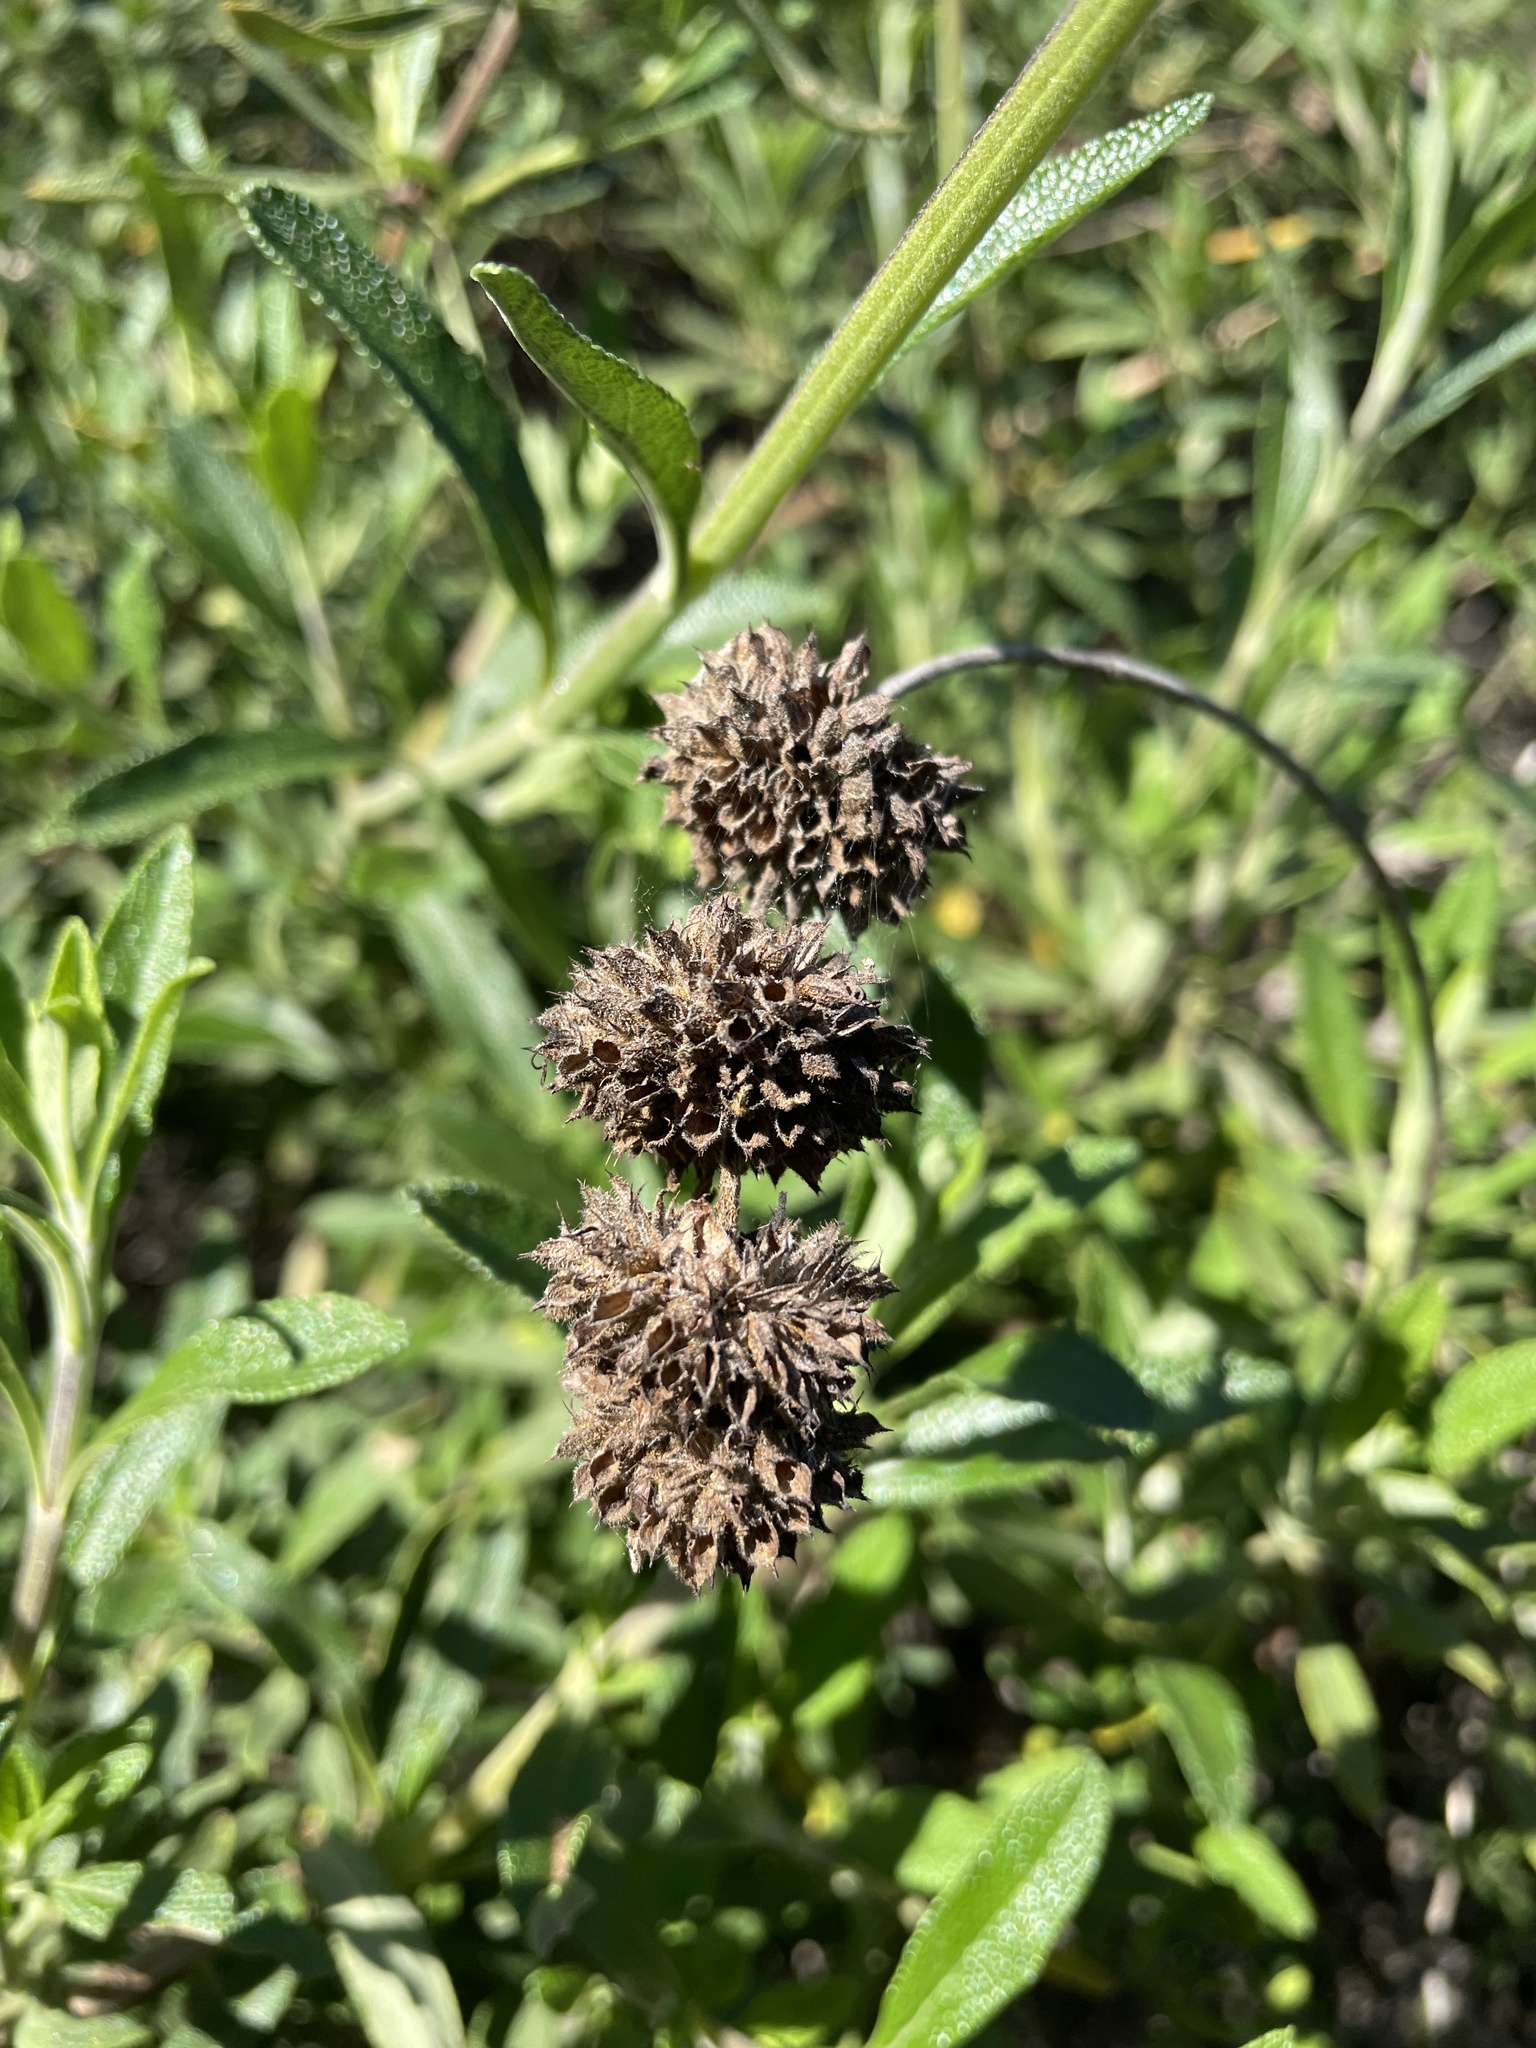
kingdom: Plantae
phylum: Tracheophyta
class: Magnoliopsida
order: Lamiales
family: Lamiaceae
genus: Salvia
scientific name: Salvia mellifera
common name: Black sage
